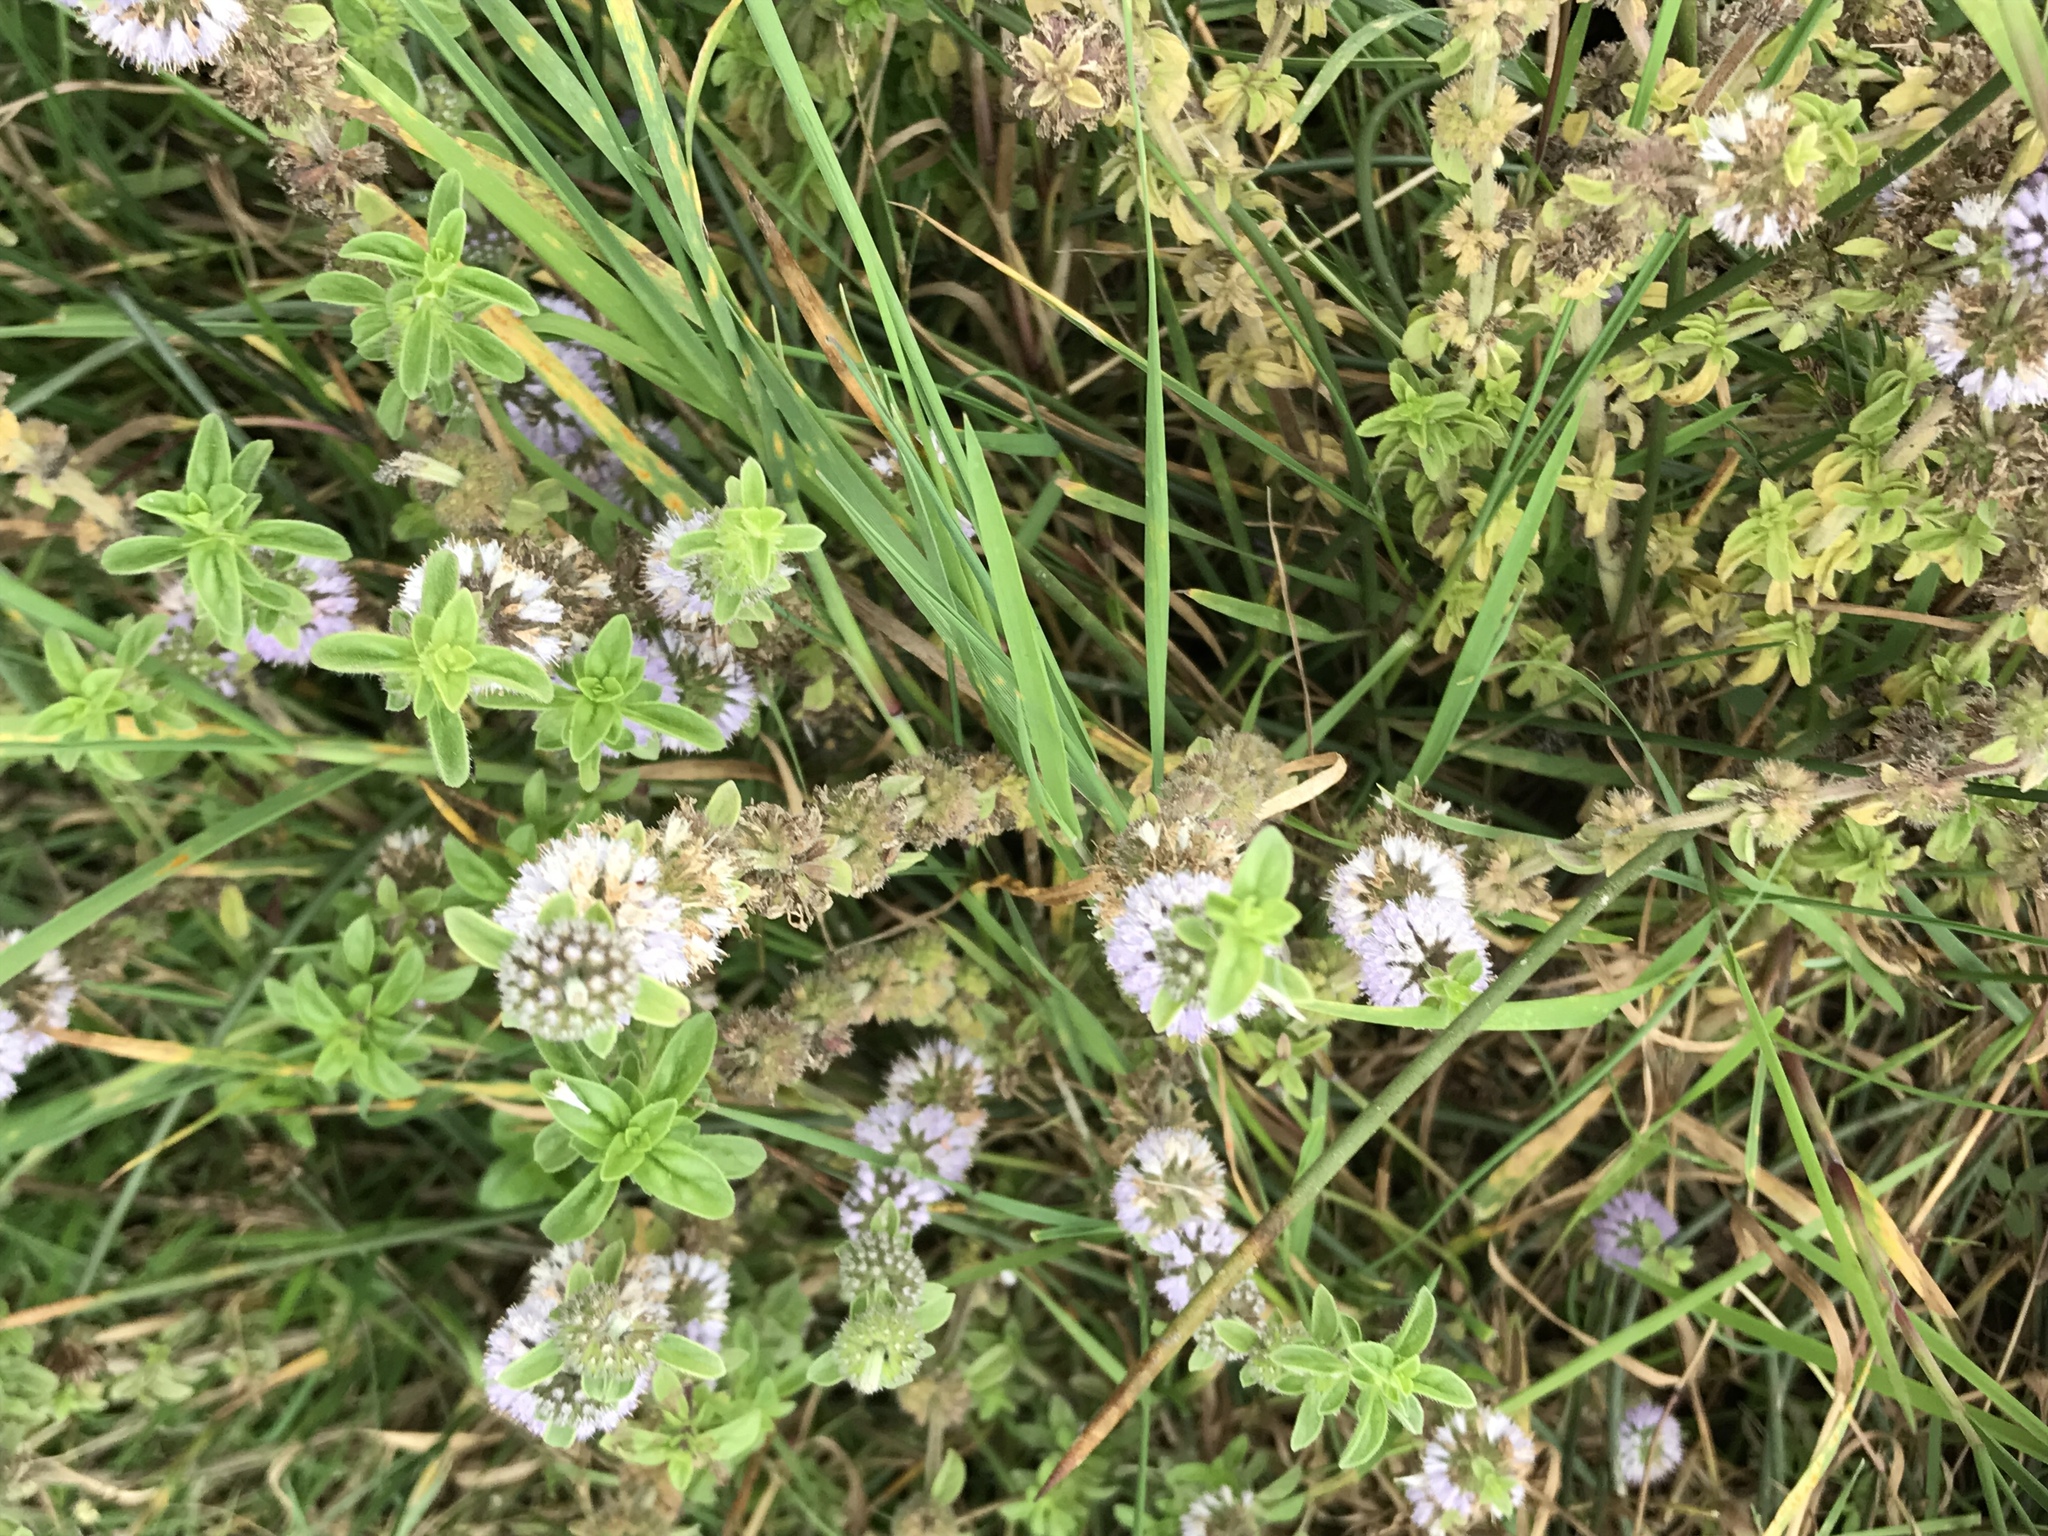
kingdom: Plantae
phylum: Tracheophyta
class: Magnoliopsida
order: Lamiales
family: Lamiaceae
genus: Mentha
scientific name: Mentha pulegium
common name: Pennyroyal
